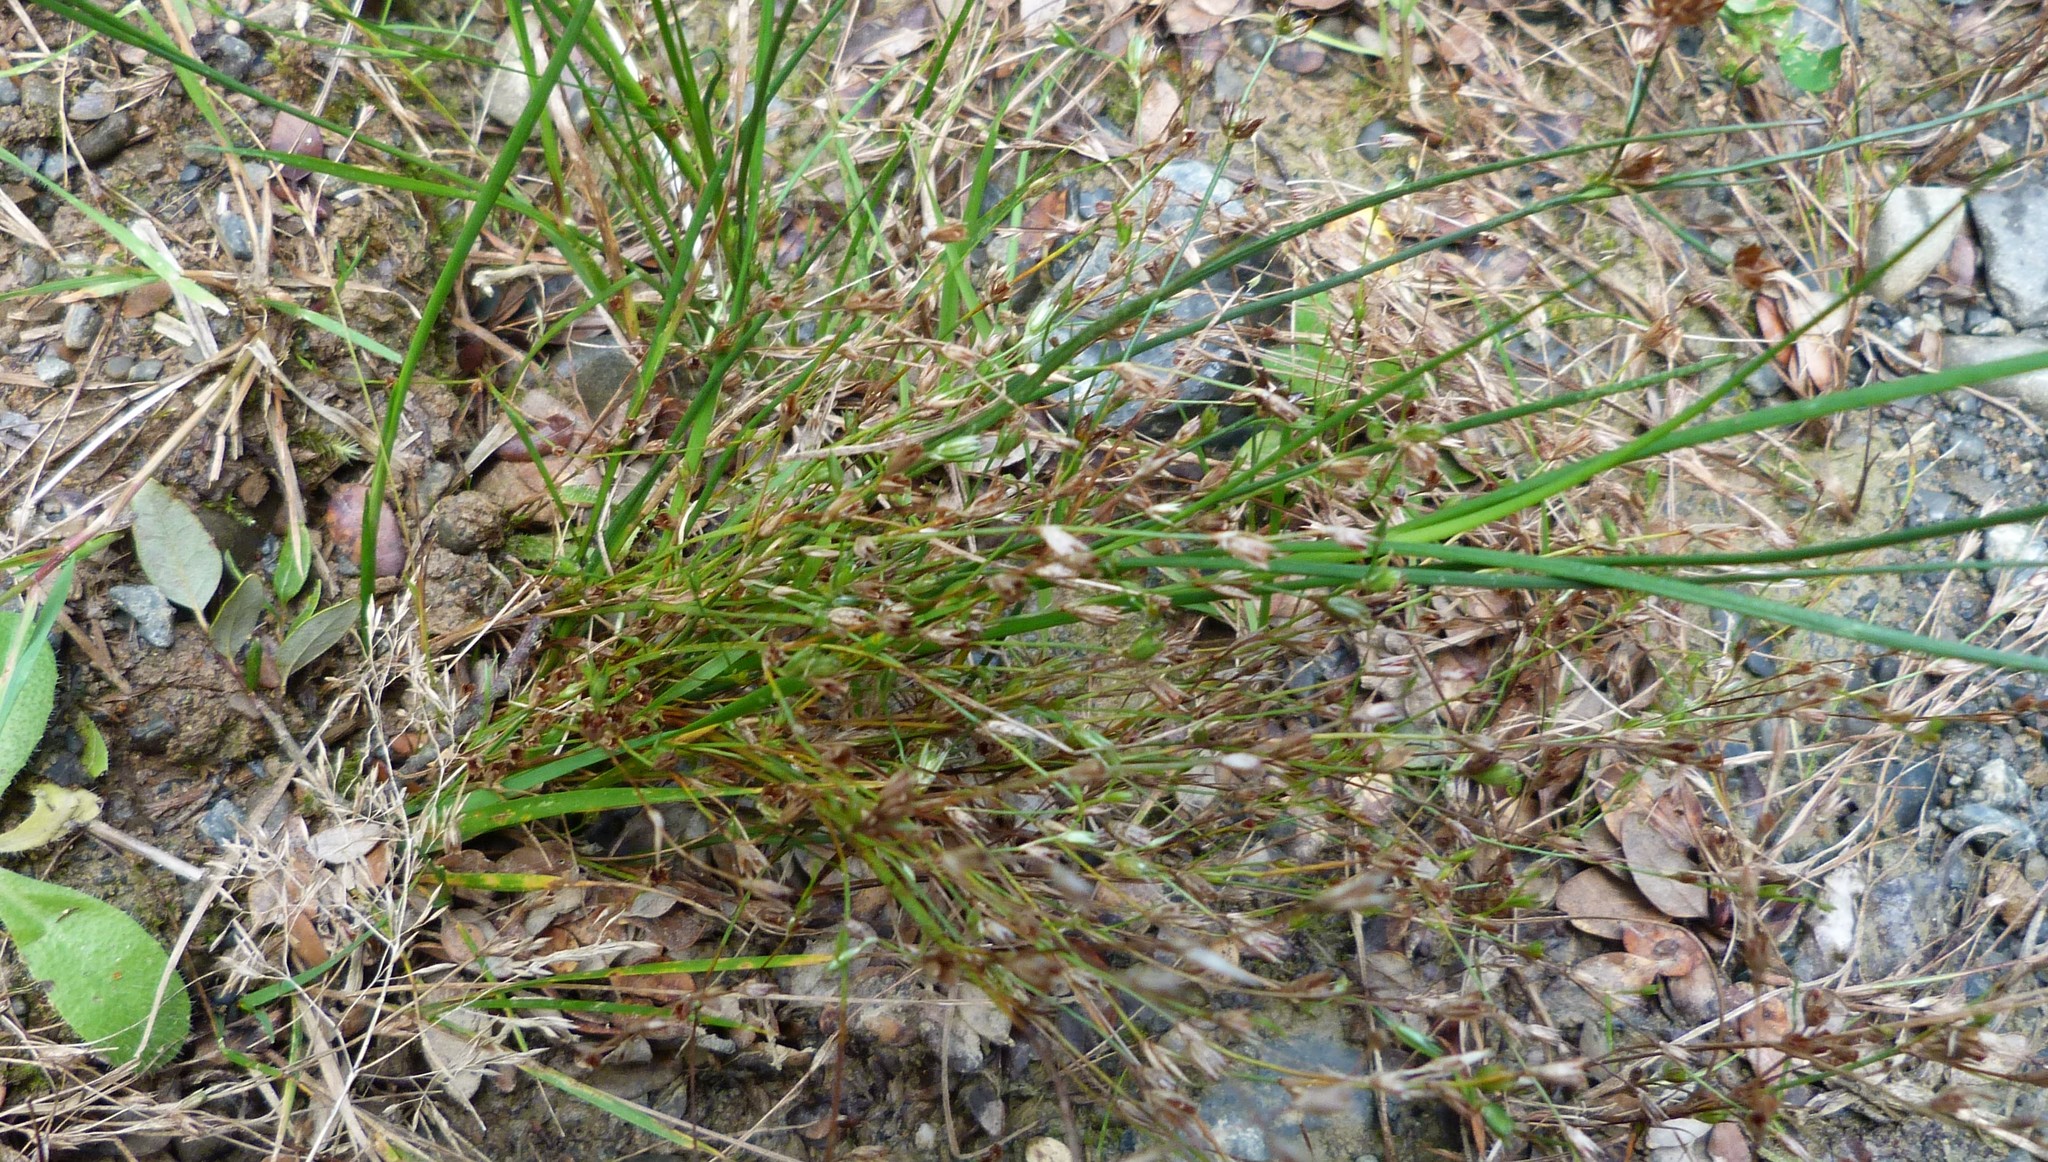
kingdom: Plantae
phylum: Tracheophyta
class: Liliopsida
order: Poales
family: Juncaceae
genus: Juncus
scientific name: Juncus bufonius
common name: Toad rush
